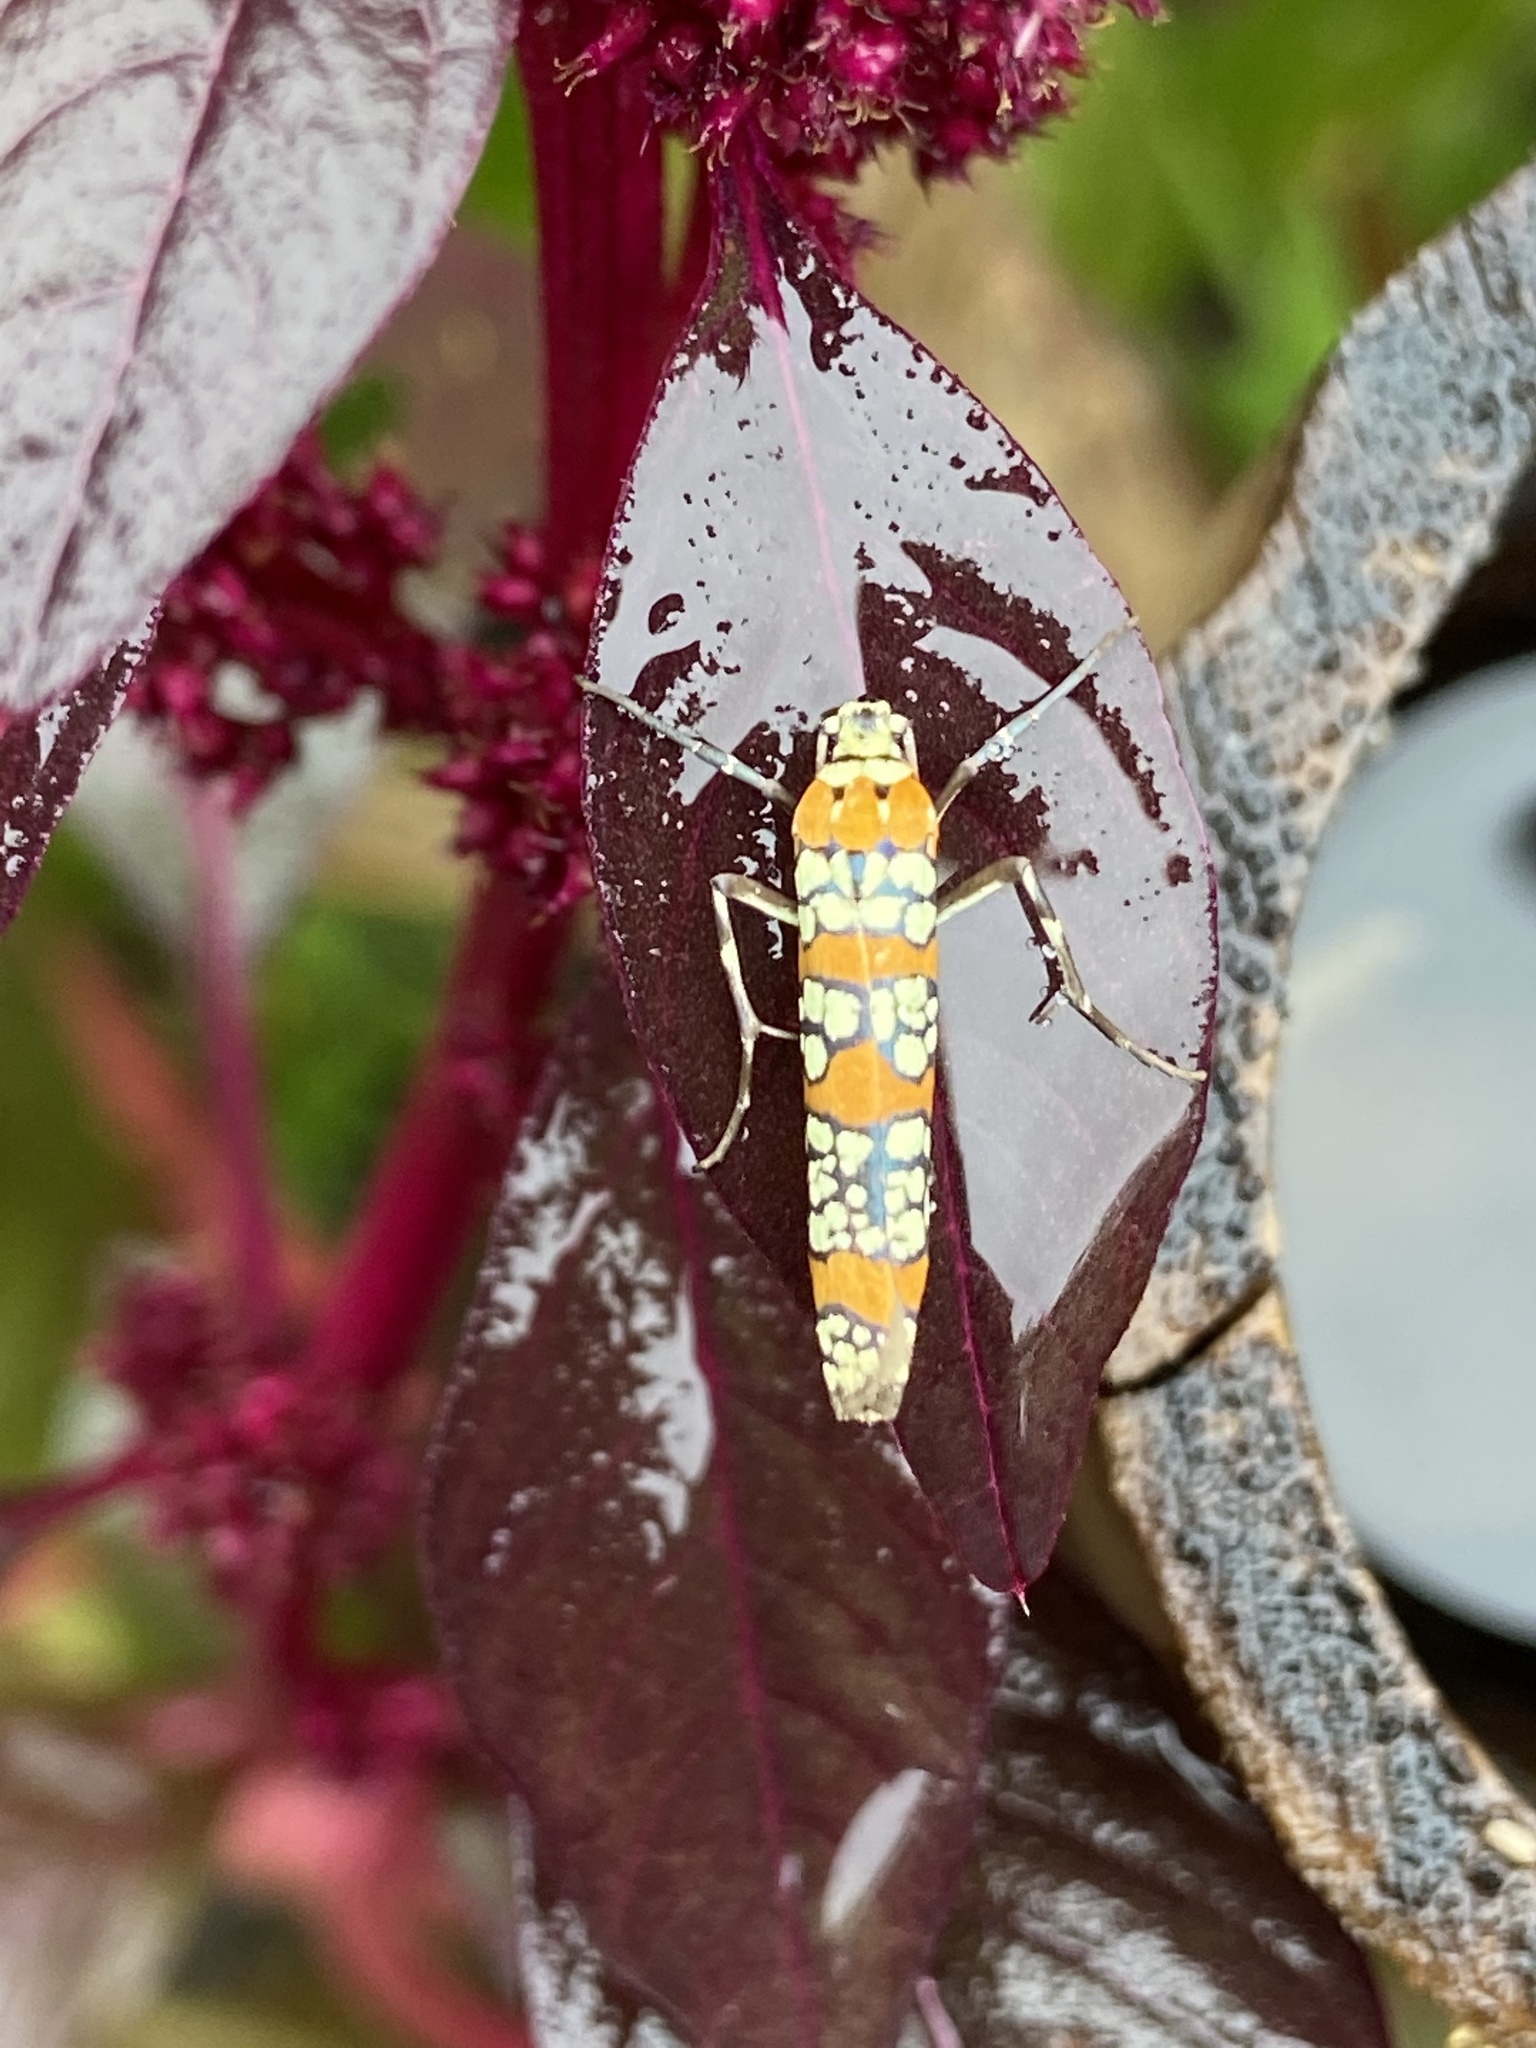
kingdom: Animalia
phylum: Arthropoda
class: Insecta
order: Lepidoptera
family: Attevidae
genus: Atteva
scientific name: Atteva punctella
